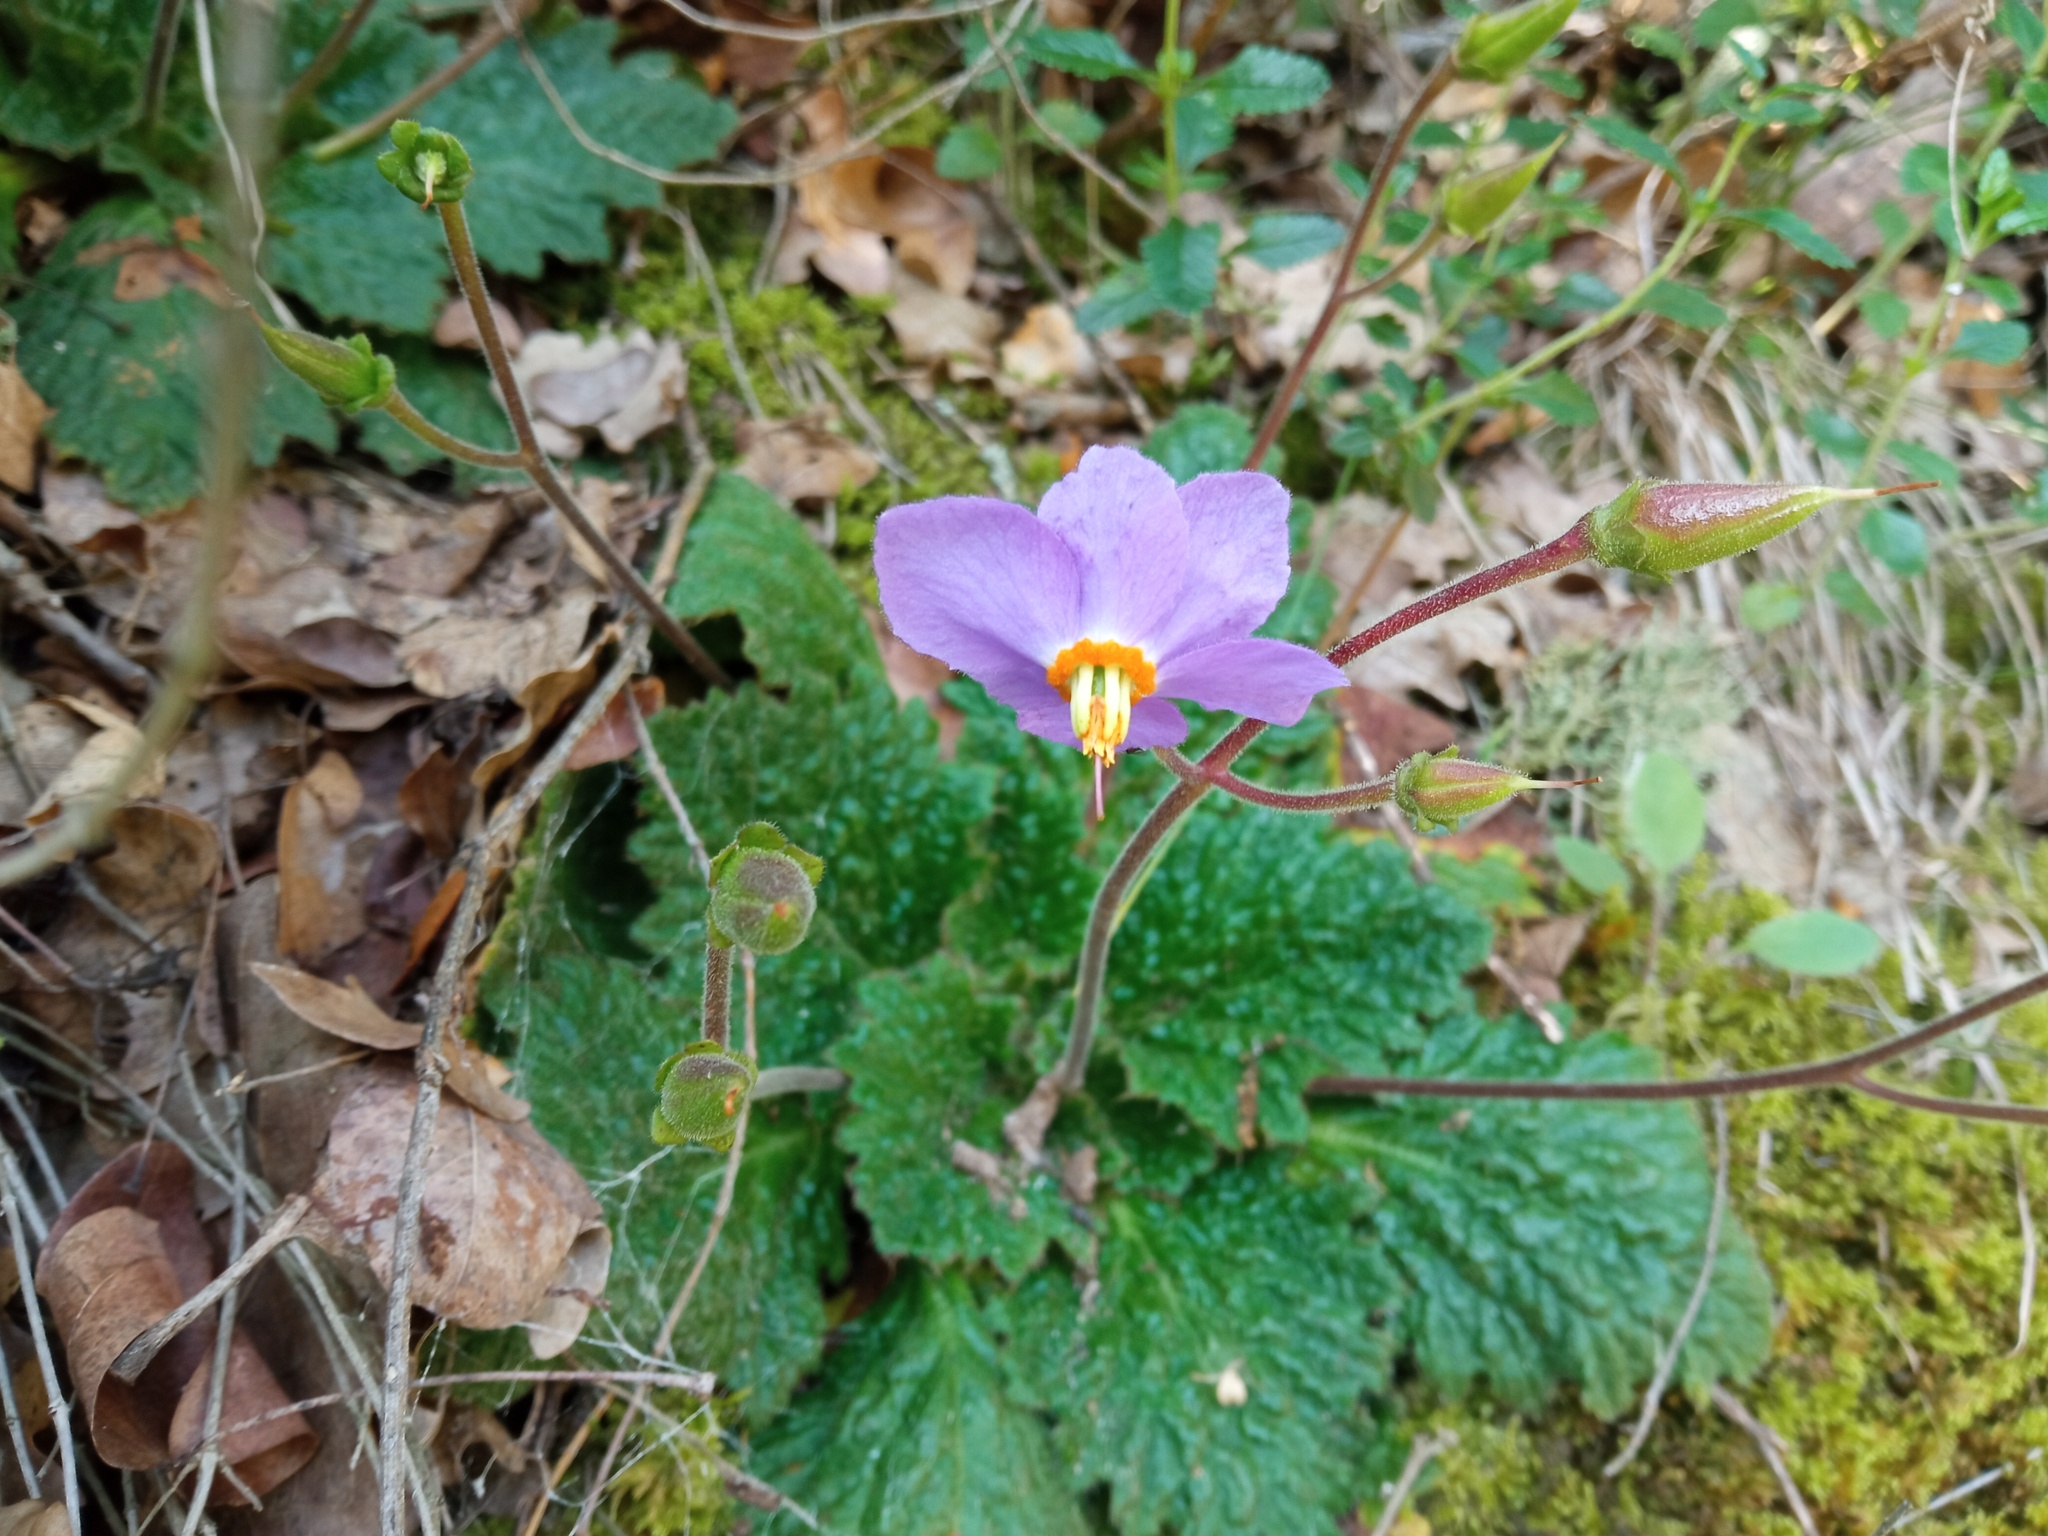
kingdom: Plantae
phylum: Tracheophyta
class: Magnoliopsida
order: Lamiales
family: Gesneriaceae
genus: Ramonda
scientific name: Ramonda myconi
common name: Pyrenean-violet
